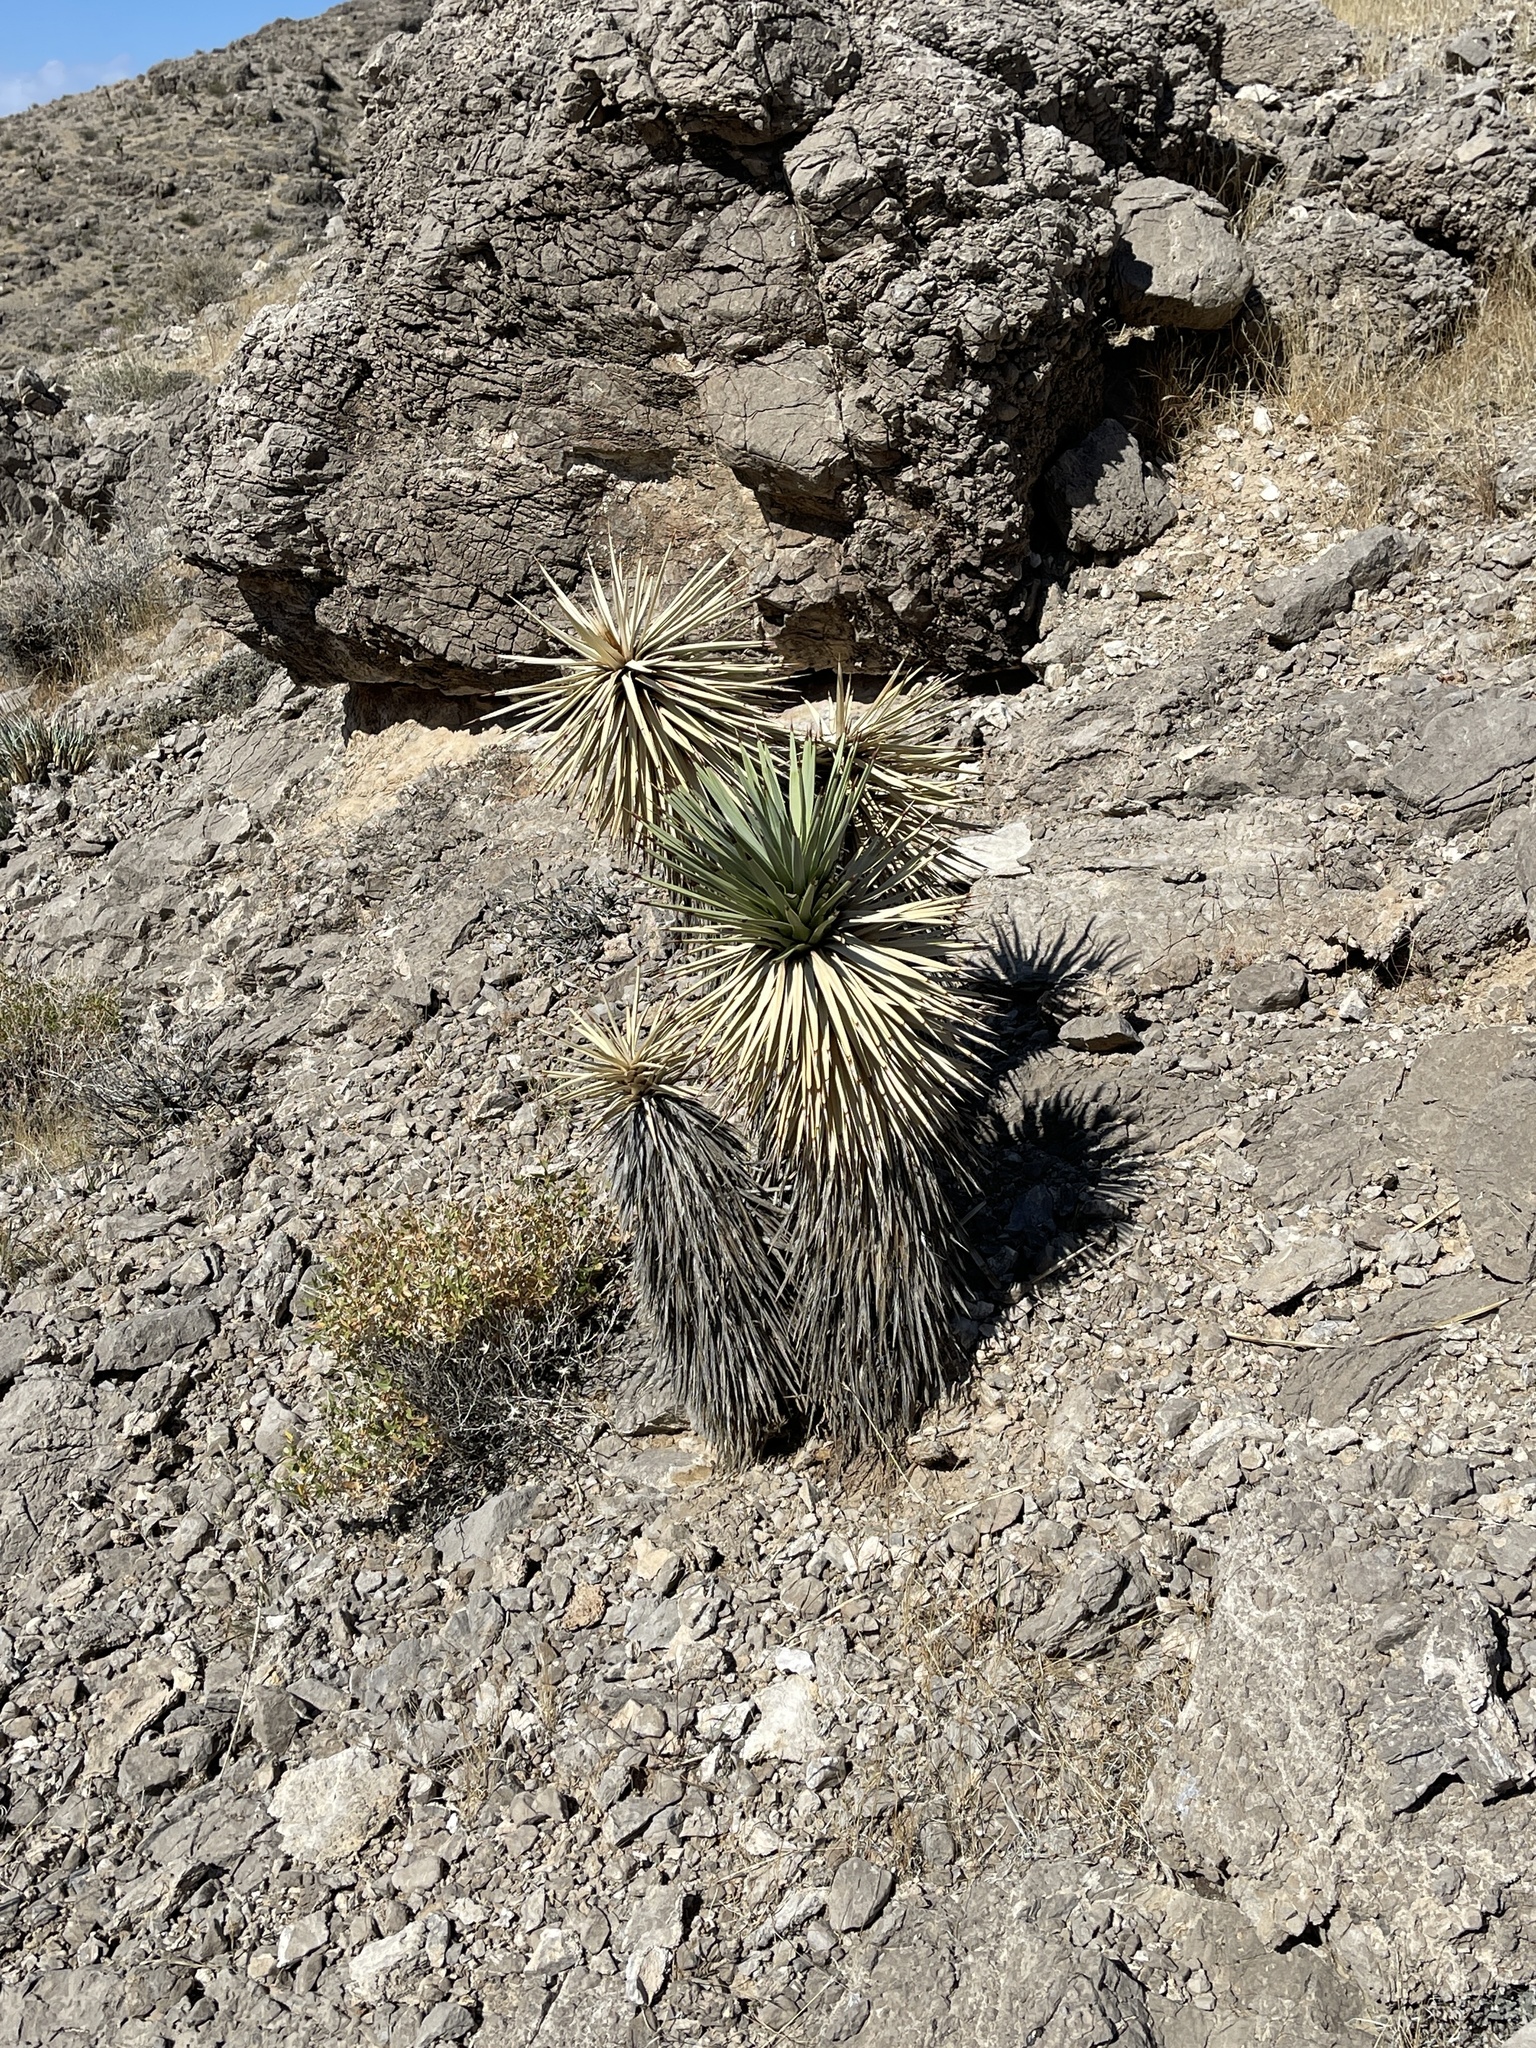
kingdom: Plantae
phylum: Tracheophyta
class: Liliopsida
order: Asparagales
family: Asparagaceae
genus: Yucca
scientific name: Yucca brevifolia
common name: Joshua tree
